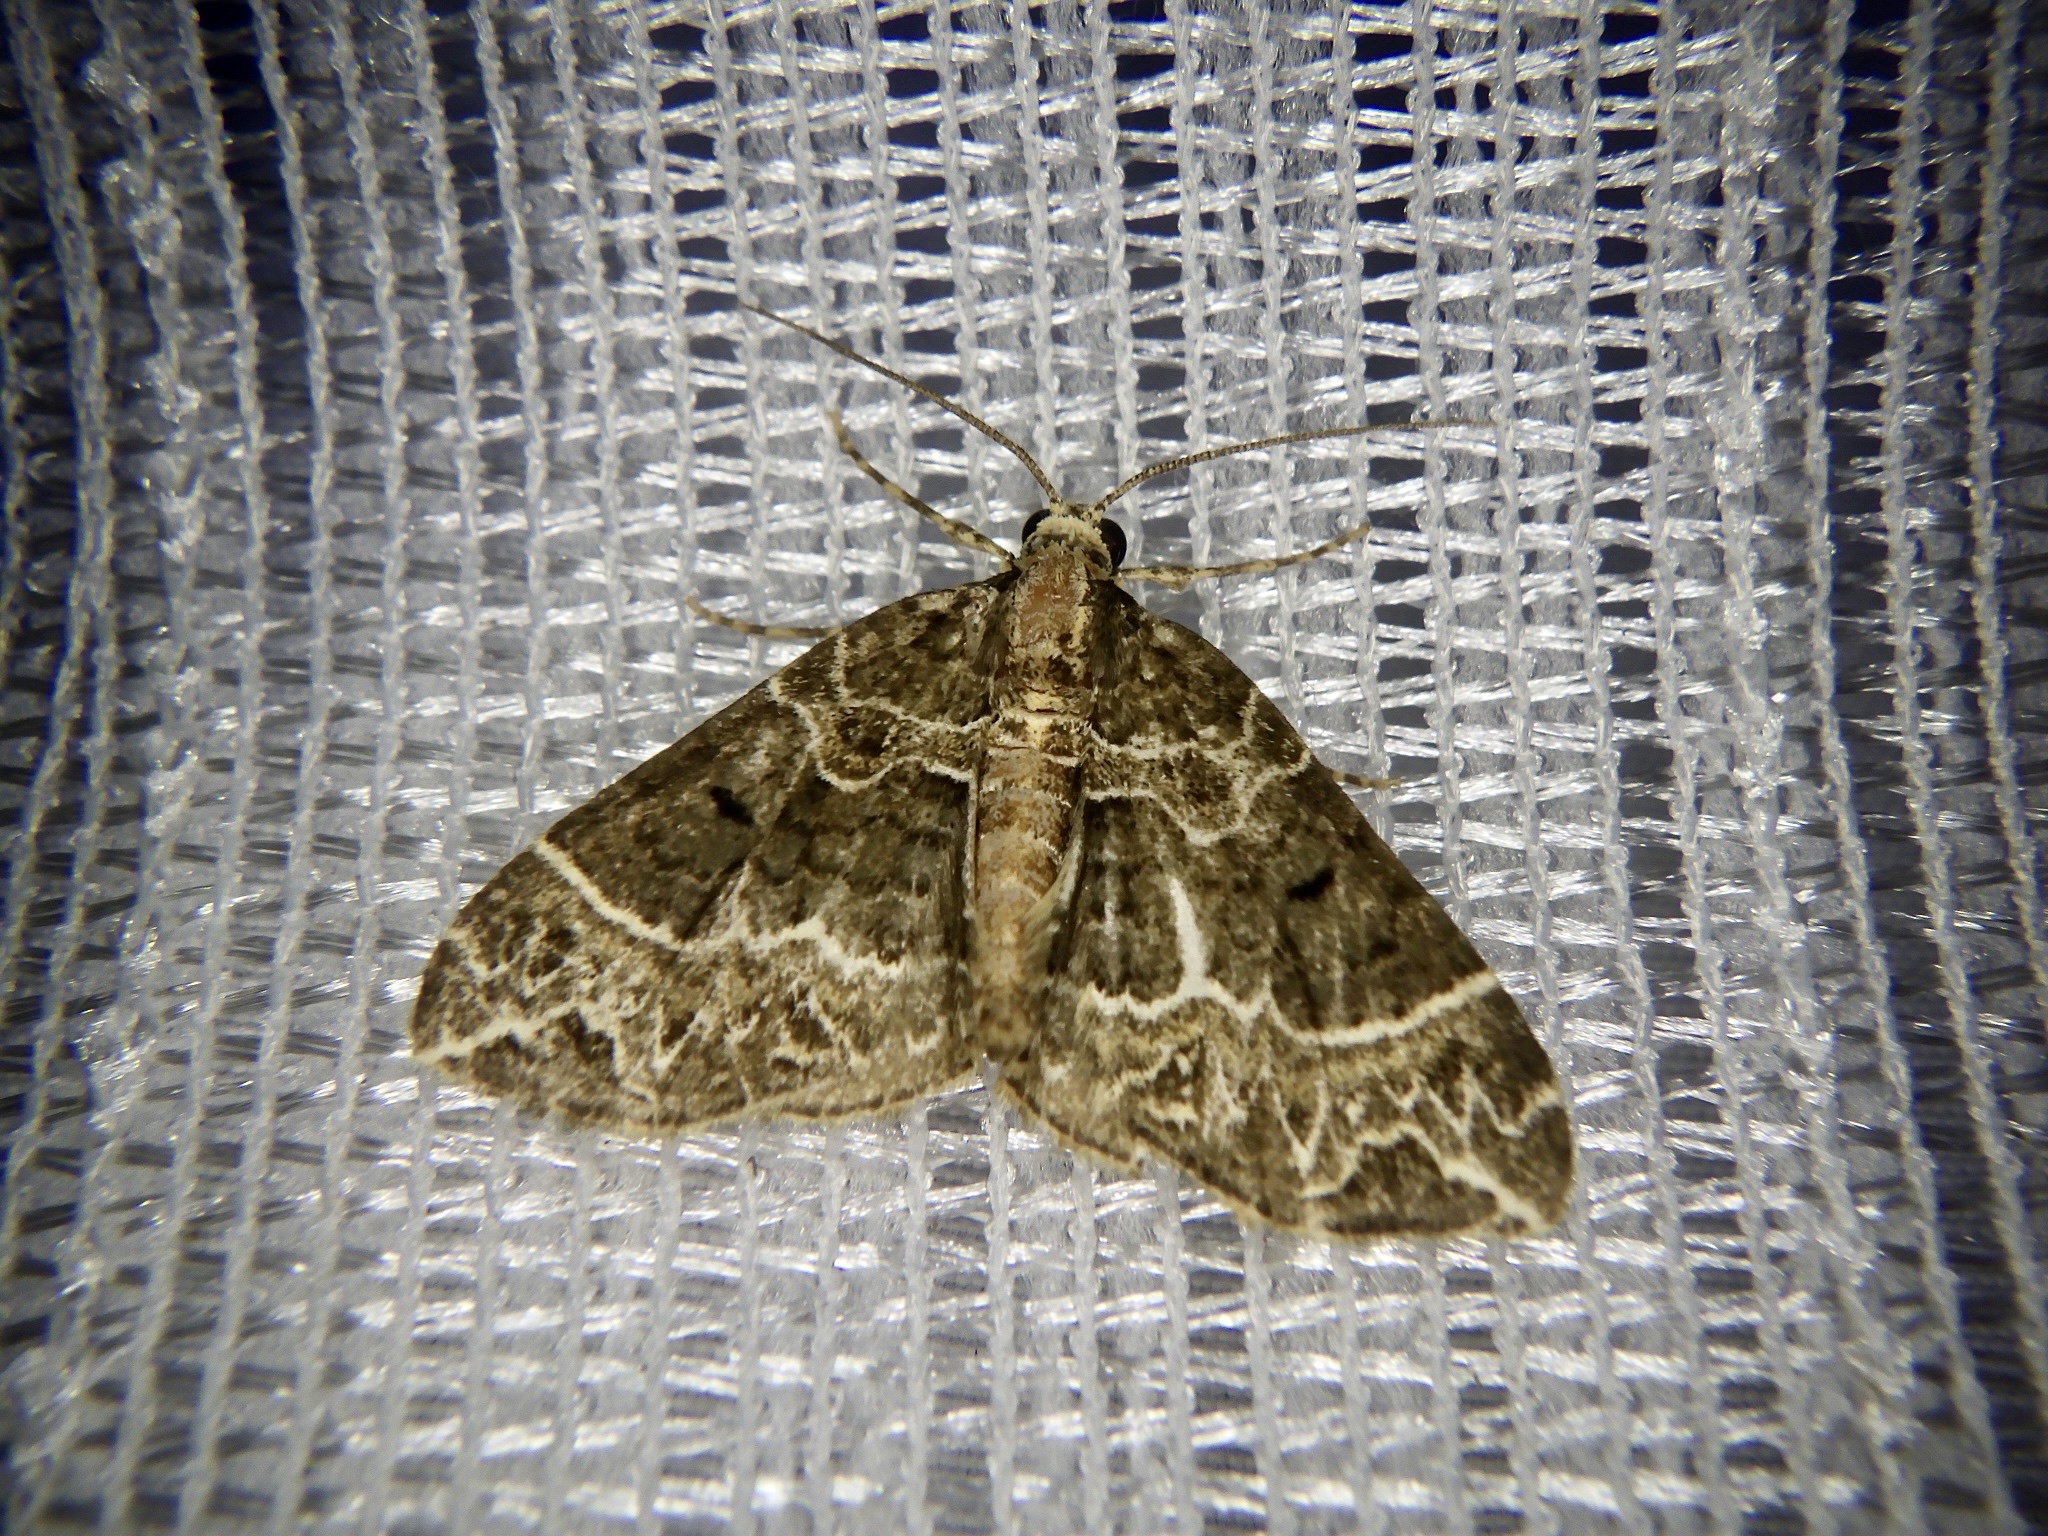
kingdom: Animalia
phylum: Arthropoda
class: Insecta
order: Lepidoptera
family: Geometridae
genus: Ecliptopera
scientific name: Ecliptopera umbrosaria
